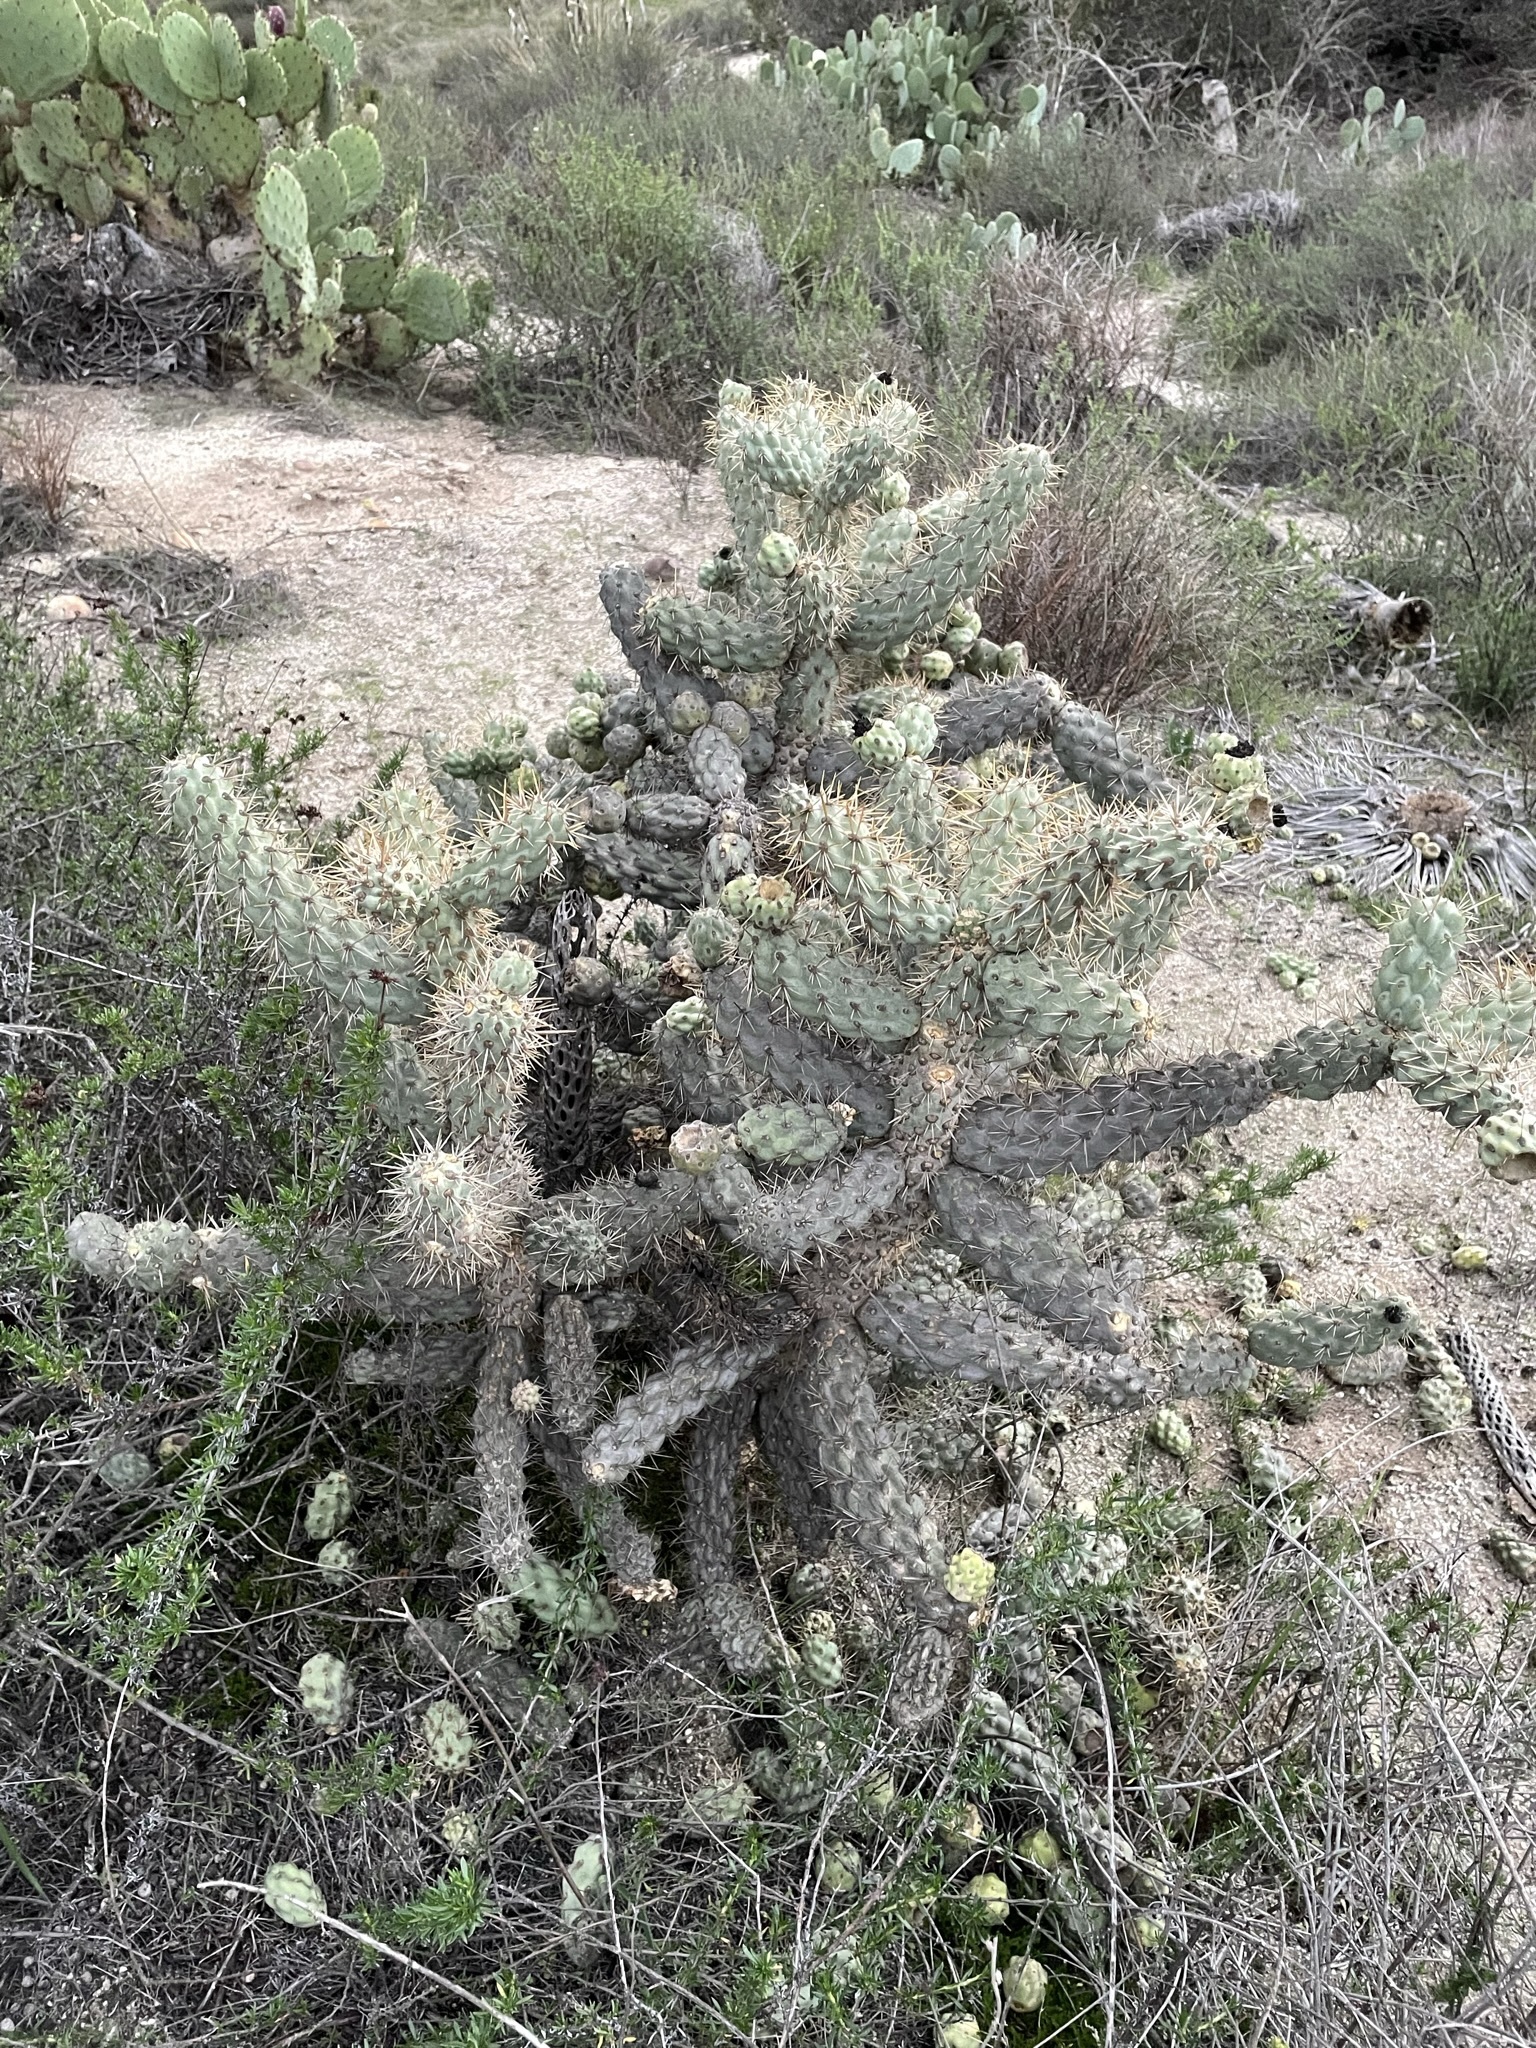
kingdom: Plantae
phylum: Tracheophyta
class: Magnoliopsida
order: Caryophyllales
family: Cactaceae
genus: Cylindropuntia
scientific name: Cylindropuntia prolifera
